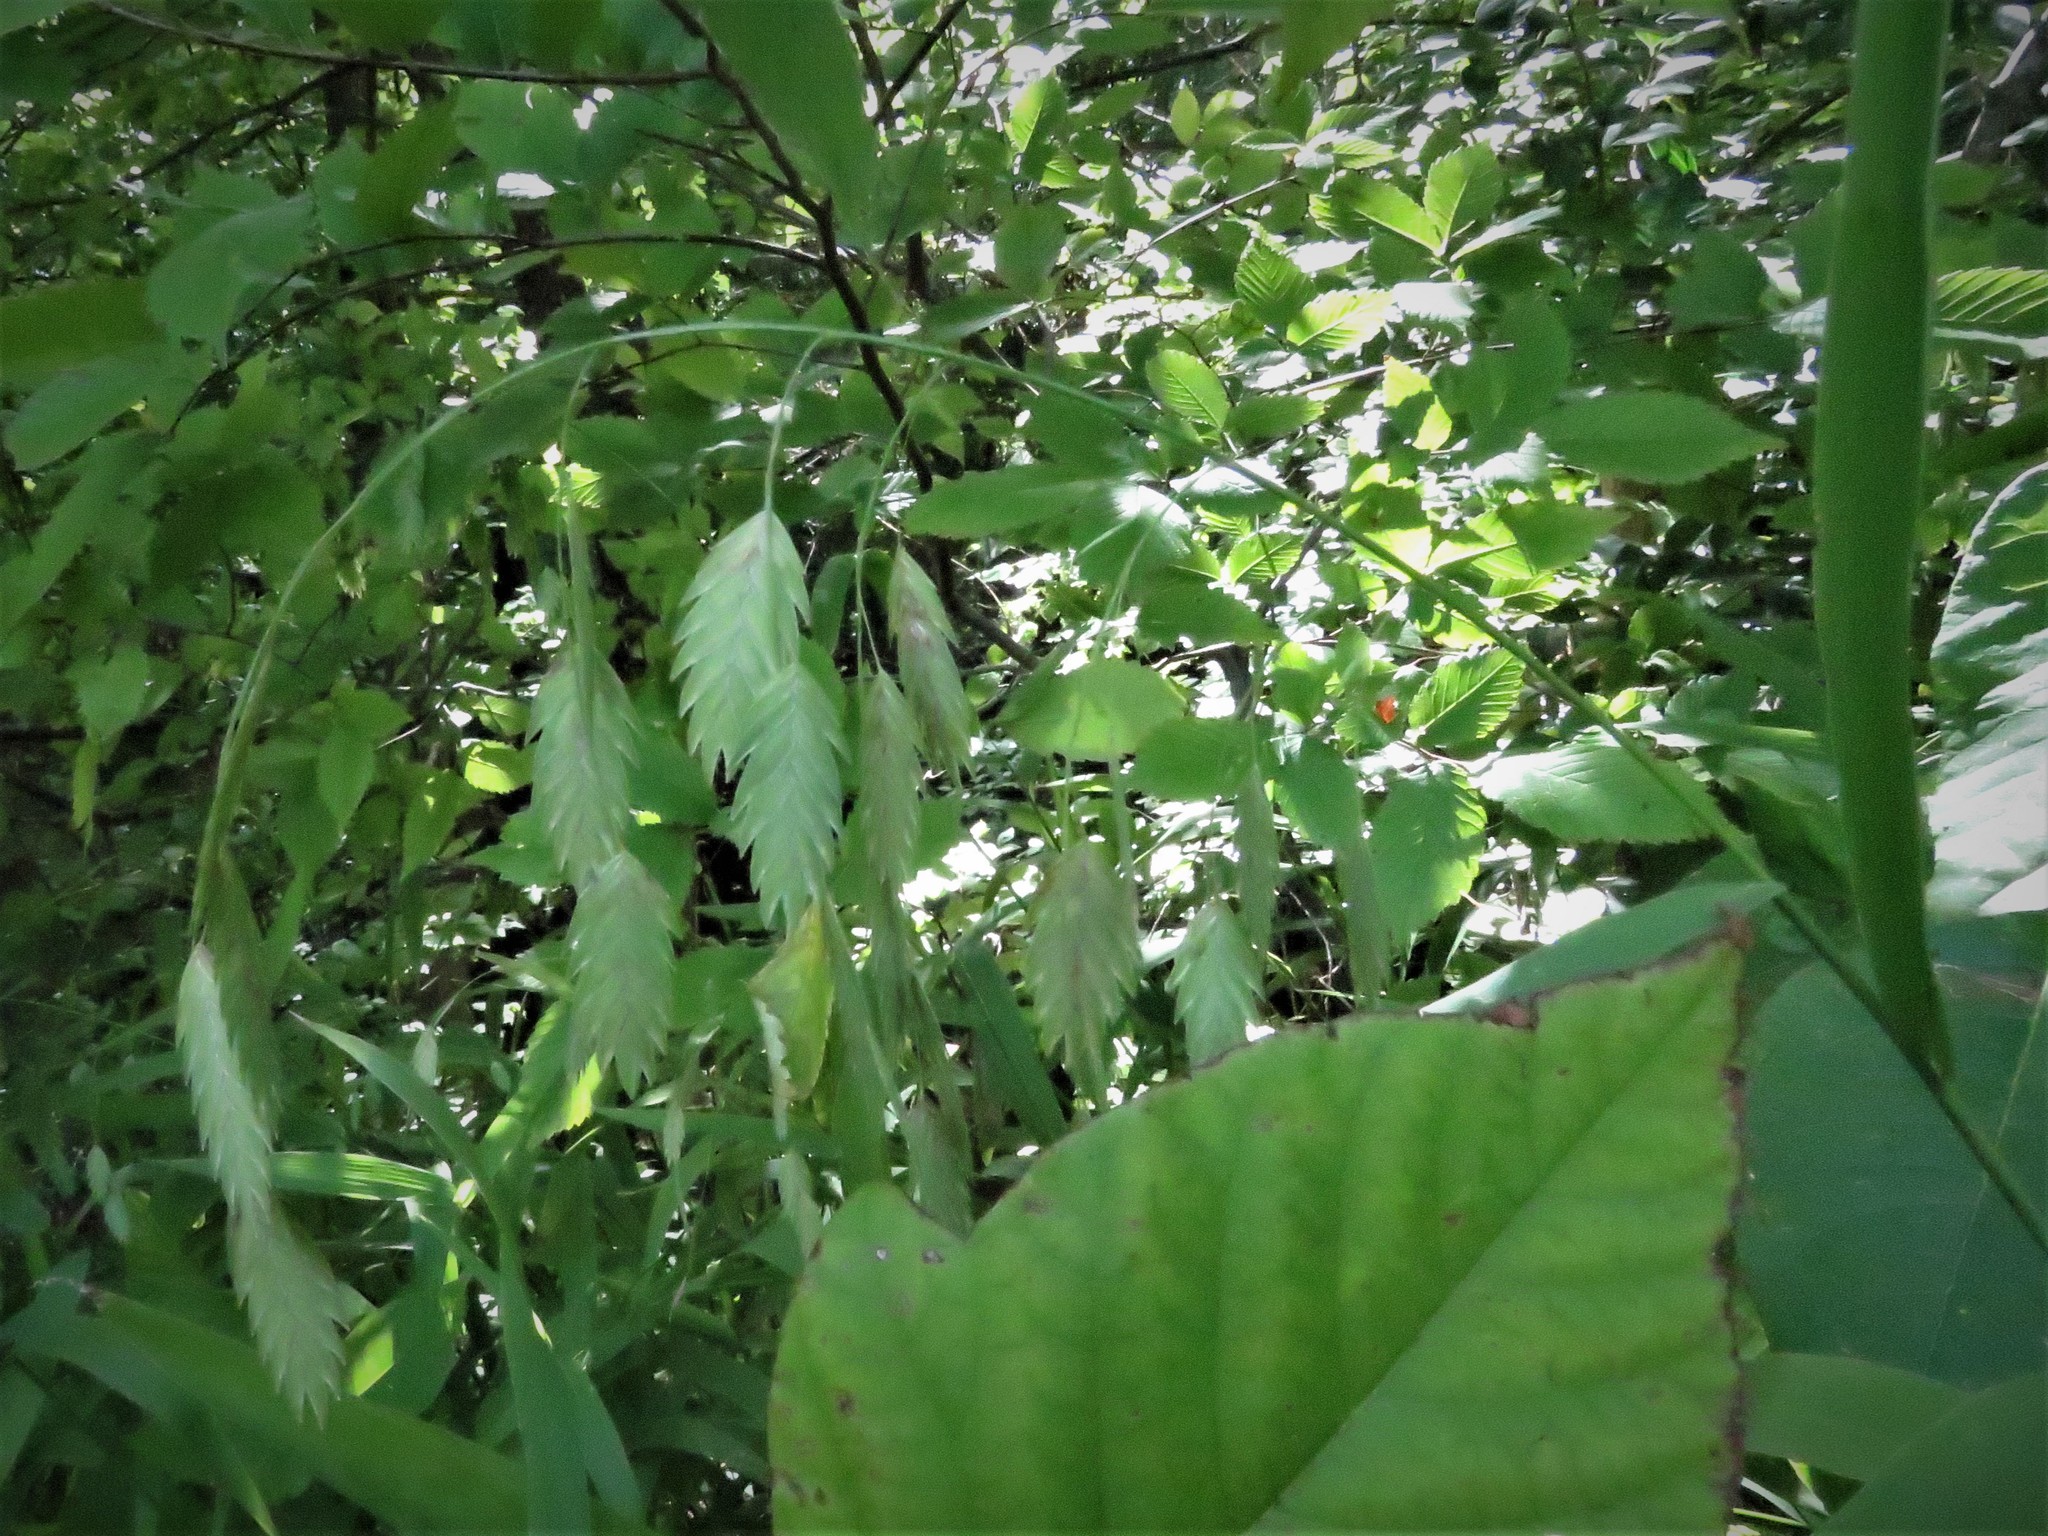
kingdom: Plantae
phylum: Tracheophyta
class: Liliopsida
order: Poales
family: Poaceae
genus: Chasmanthium
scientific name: Chasmanthium latifolium
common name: Broad-leaved chasmanthium
